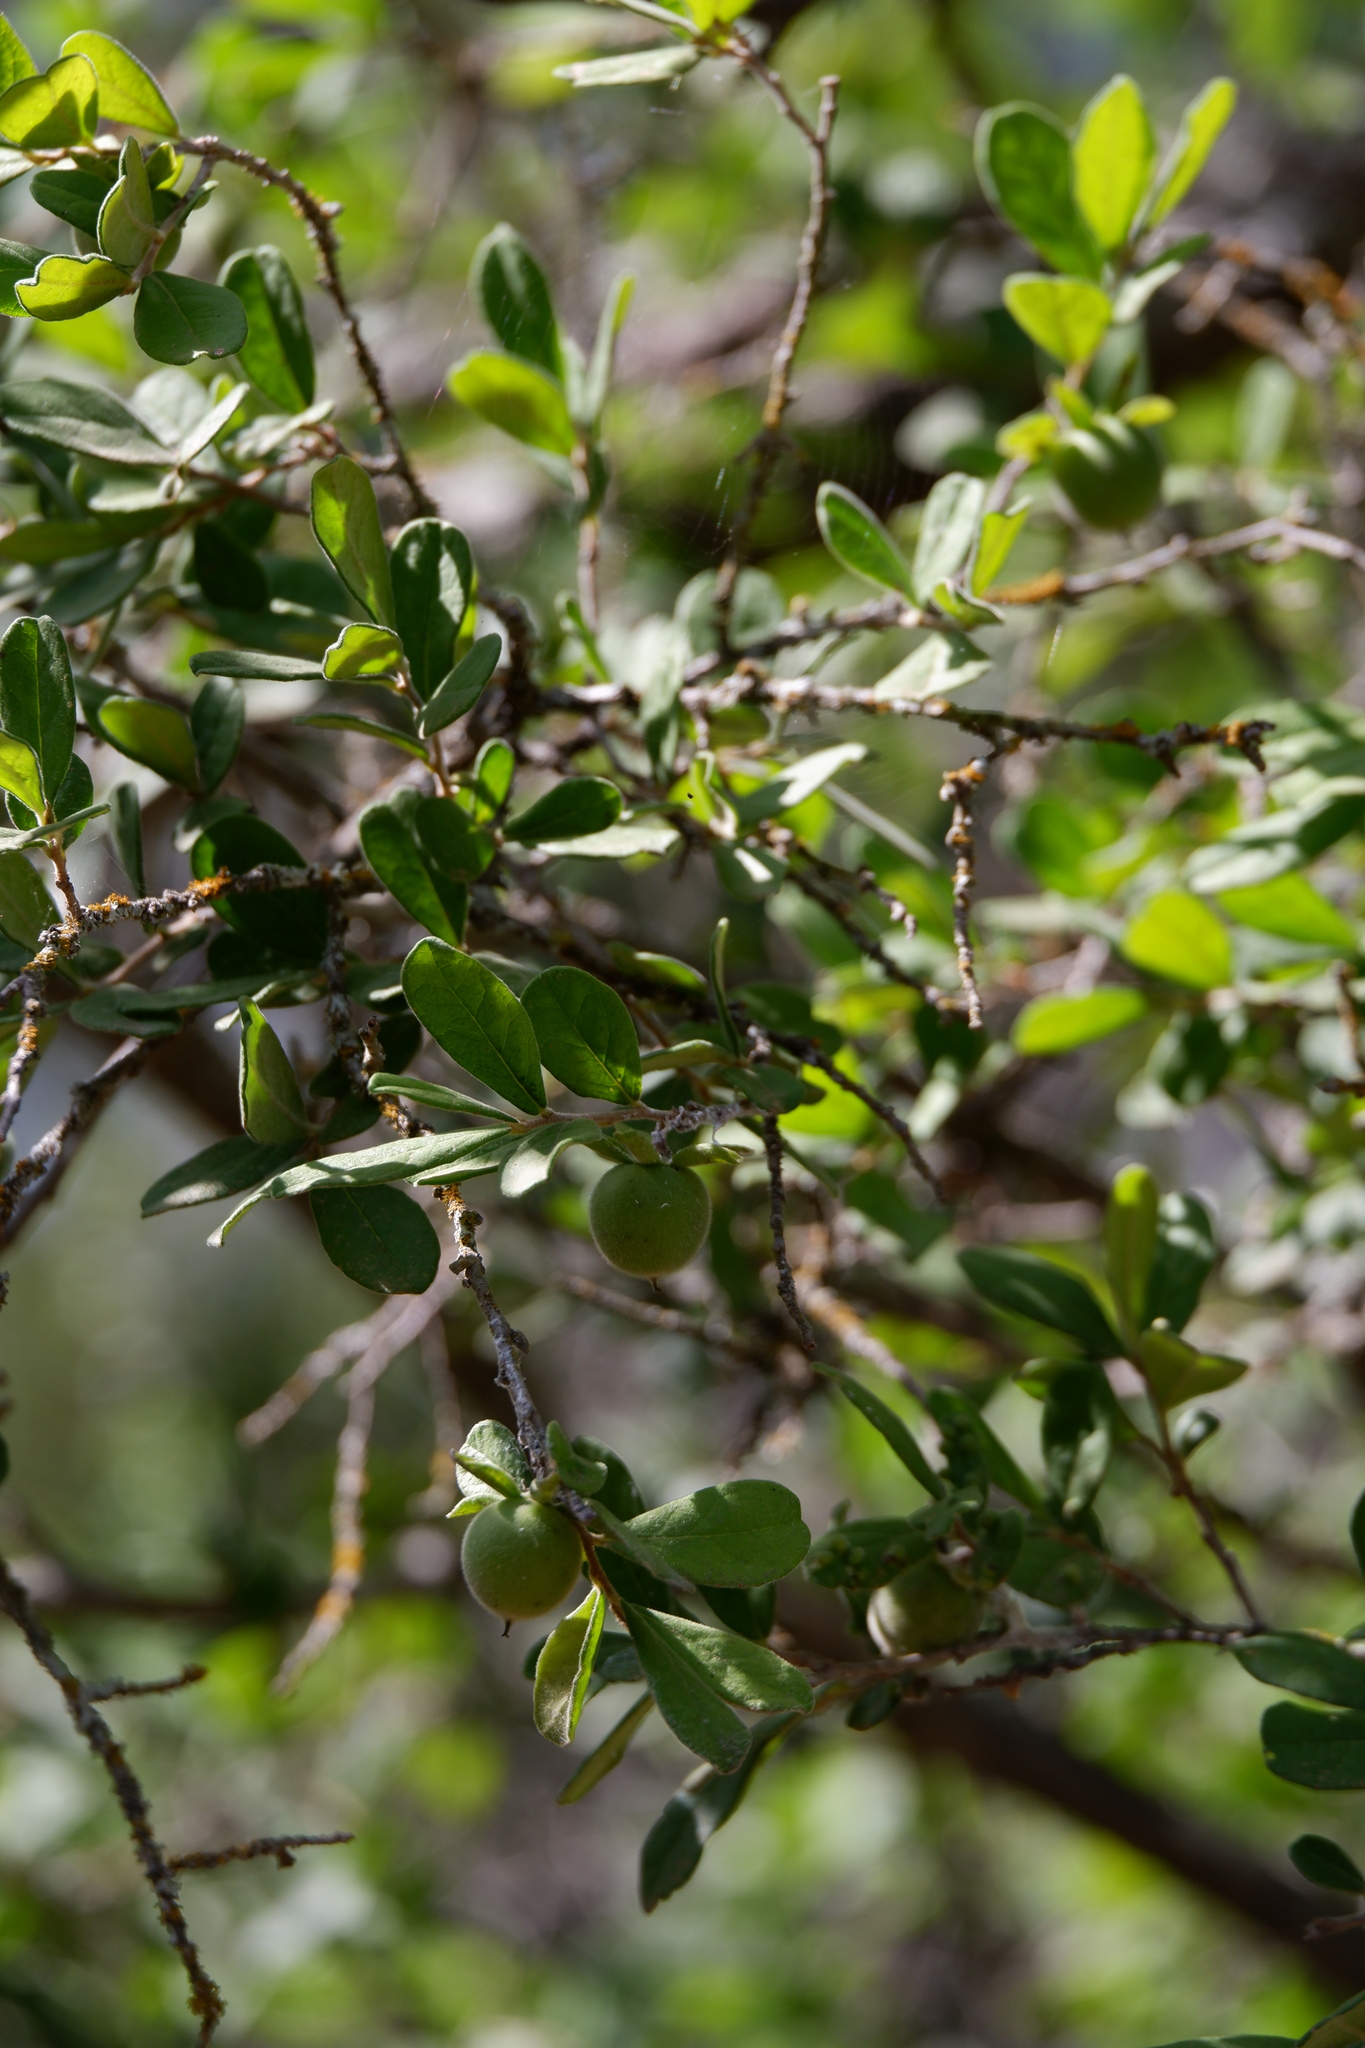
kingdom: Plantae
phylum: Tracheophyta
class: Magnoliopsida
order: Ericales
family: Ebenaceae
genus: Diospyros
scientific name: Diospyros texana
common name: Texas persimmon
